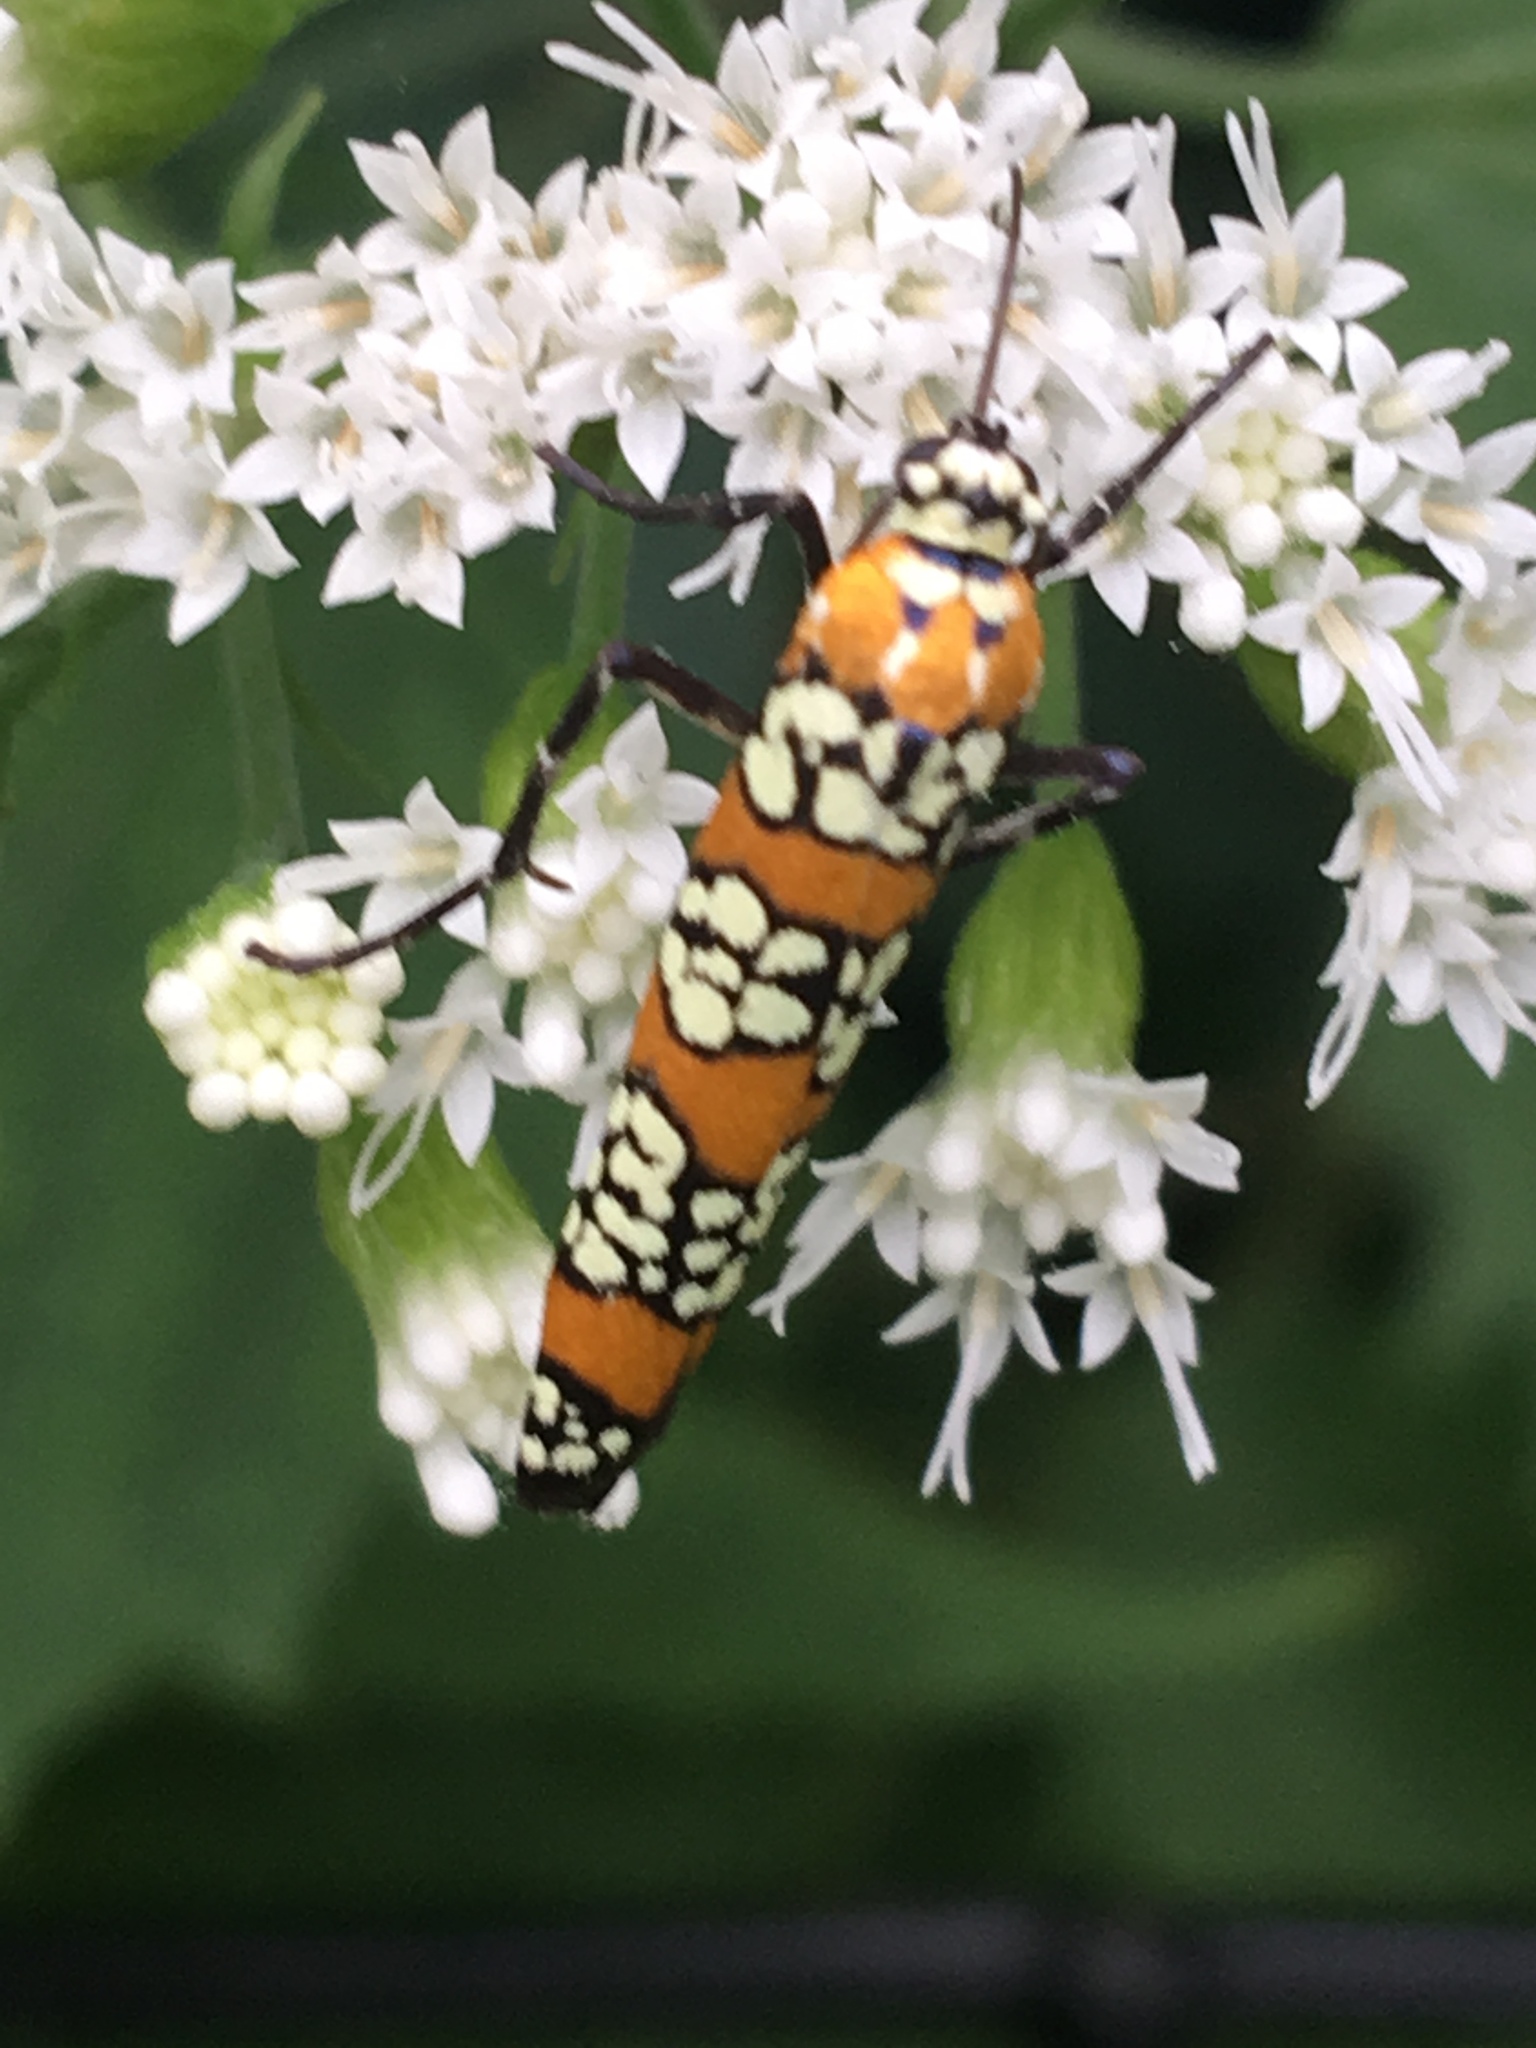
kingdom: Animalia
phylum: Arthropoda
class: Insecta
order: Lepidoptera
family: Attevidae
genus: Atteva
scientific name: Atteva punctella
